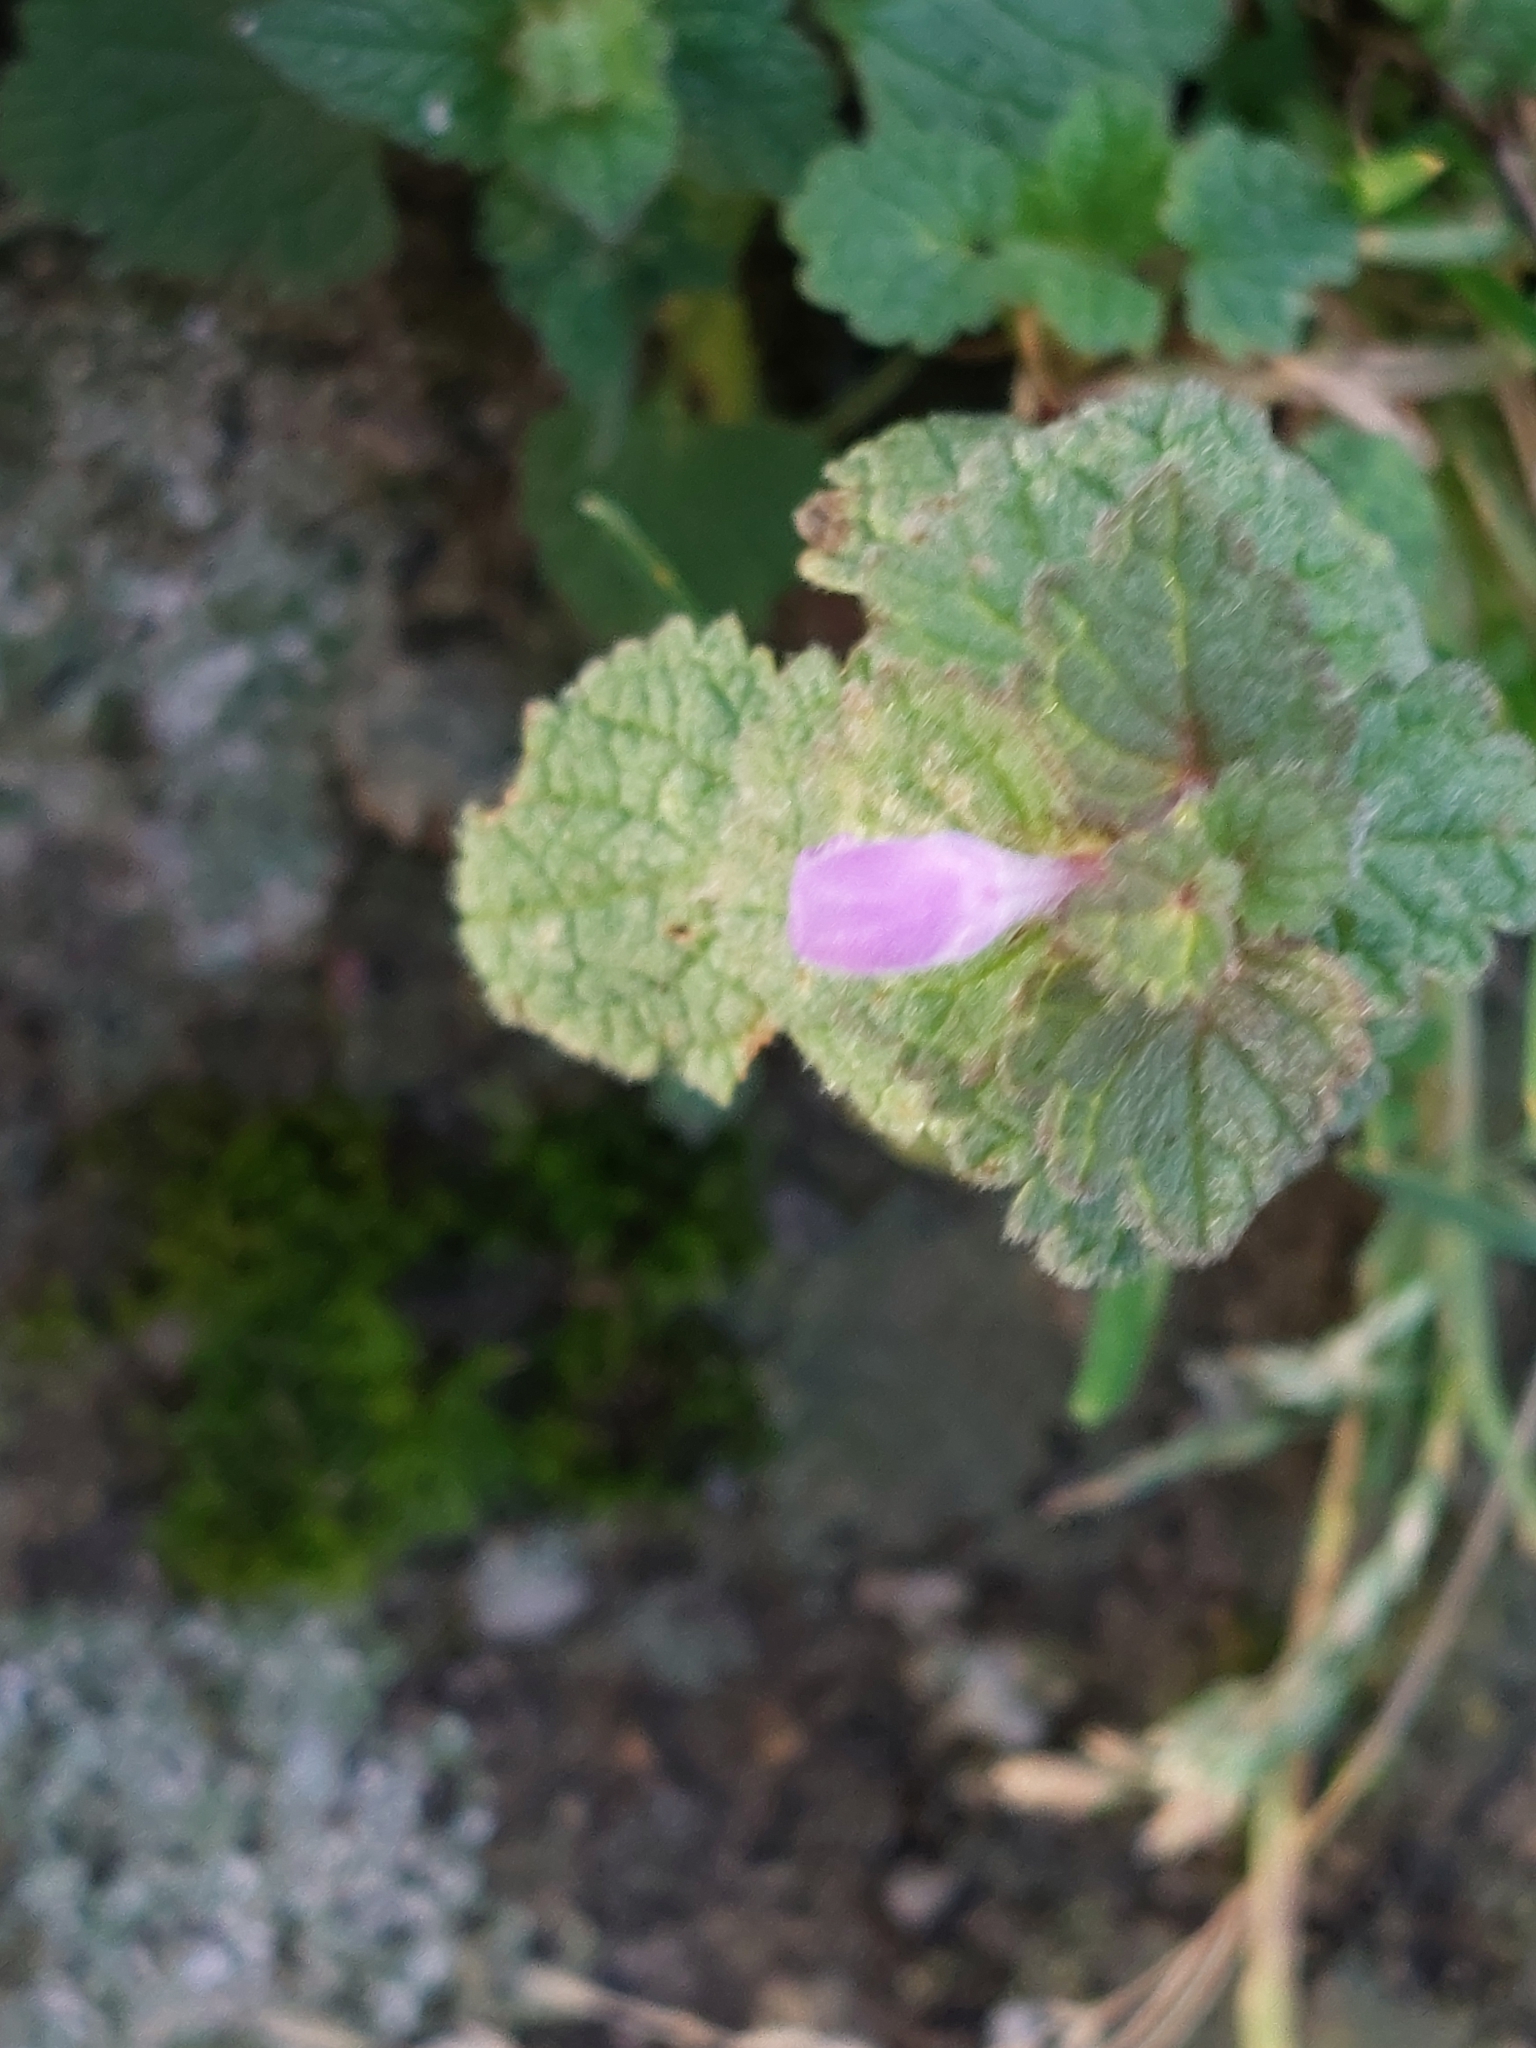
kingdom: Plantae
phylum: Tracheophyta
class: Magnoliopsida
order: Lamiales
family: Lamiaceae
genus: Lamium
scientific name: Lamium purpureum
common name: Red dead-nettle
